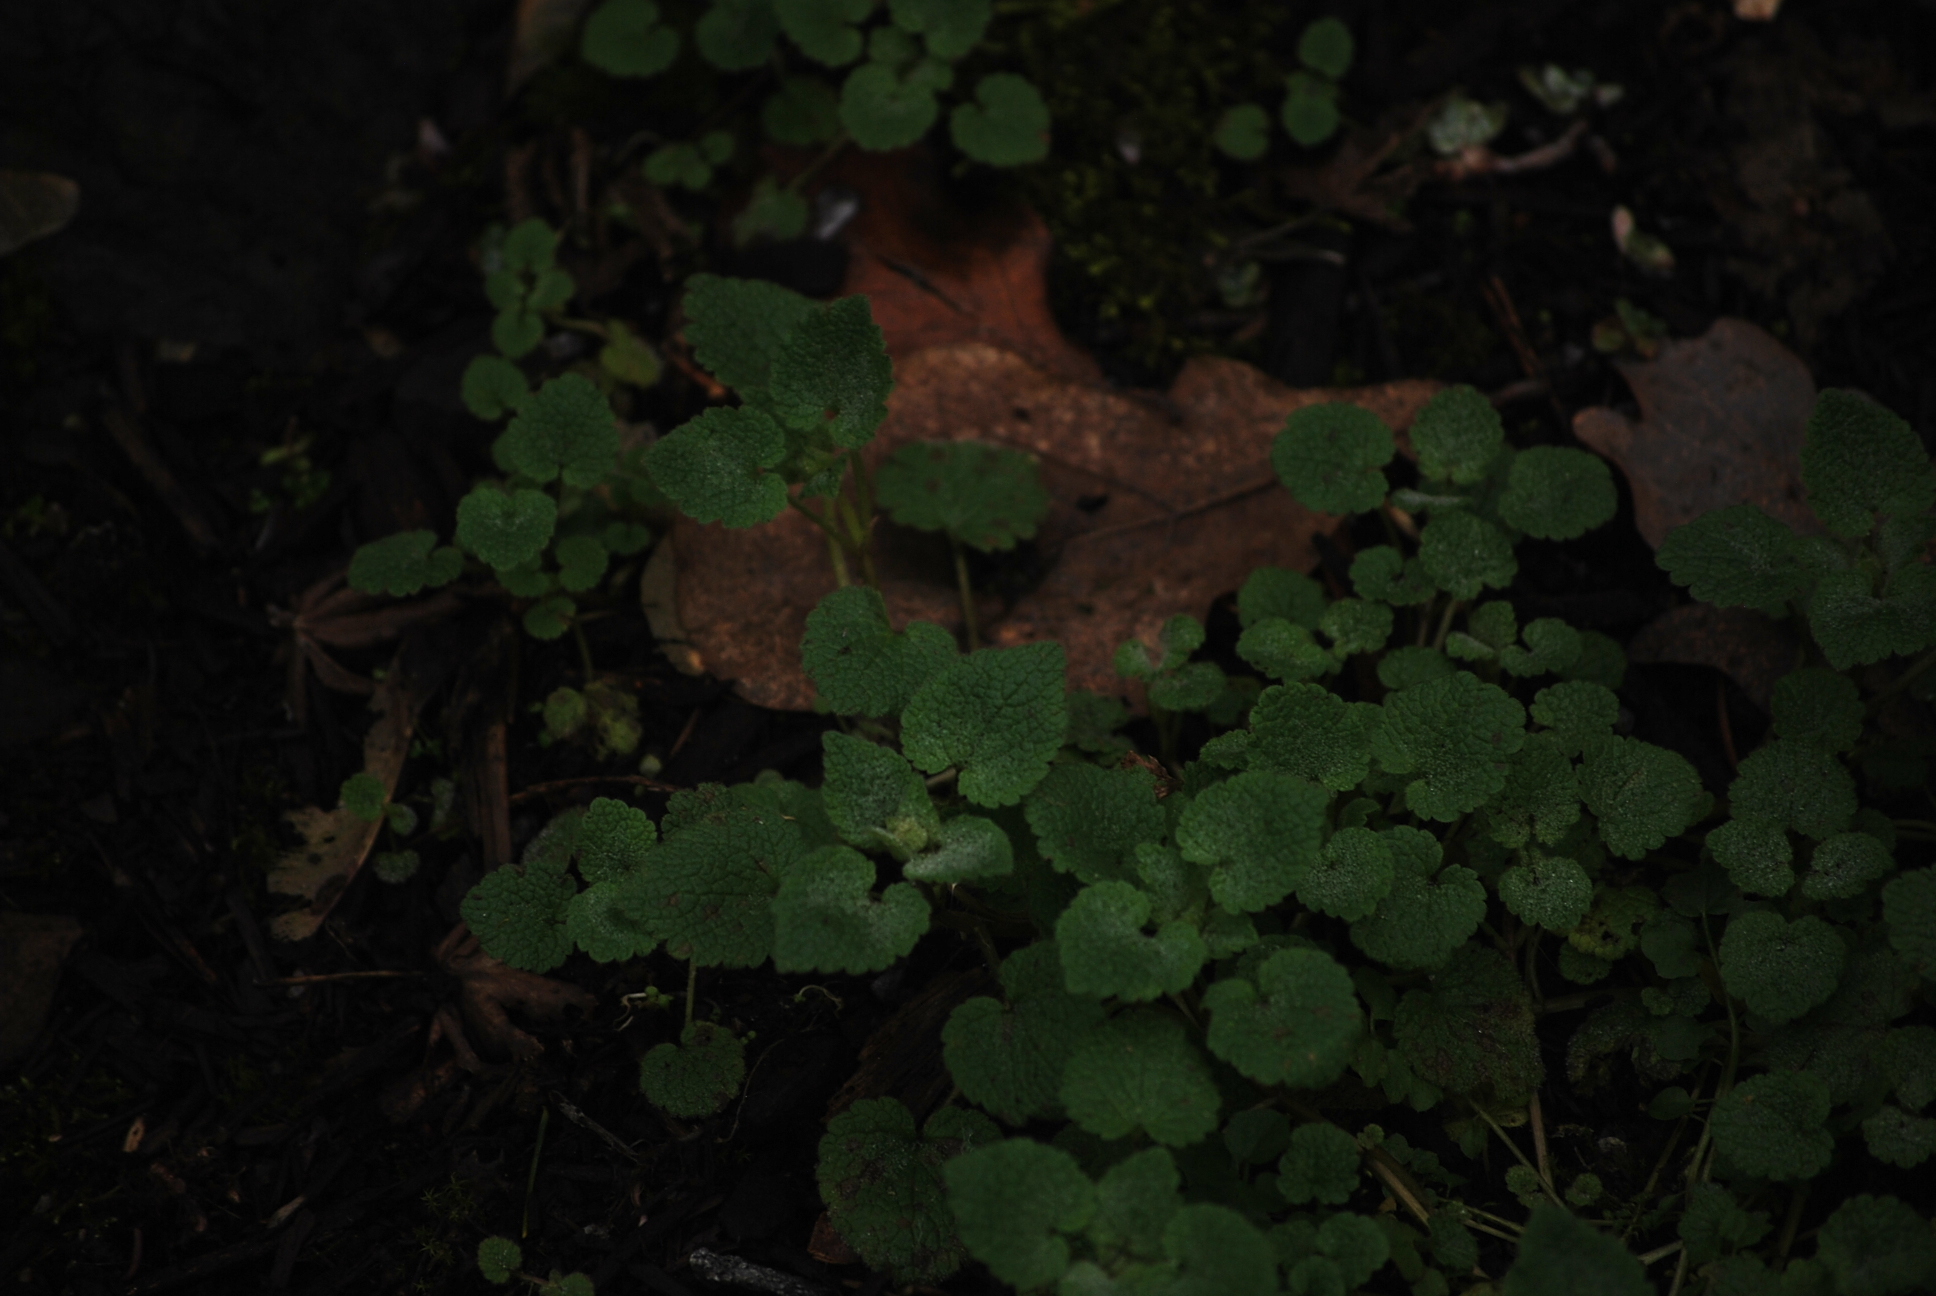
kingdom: Plantae
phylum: Tracheophyta
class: Magnoliopsida
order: Lamiales
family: Lamiaceae
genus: Lamium
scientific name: Lamium purpureum
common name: Red dead-nettle
